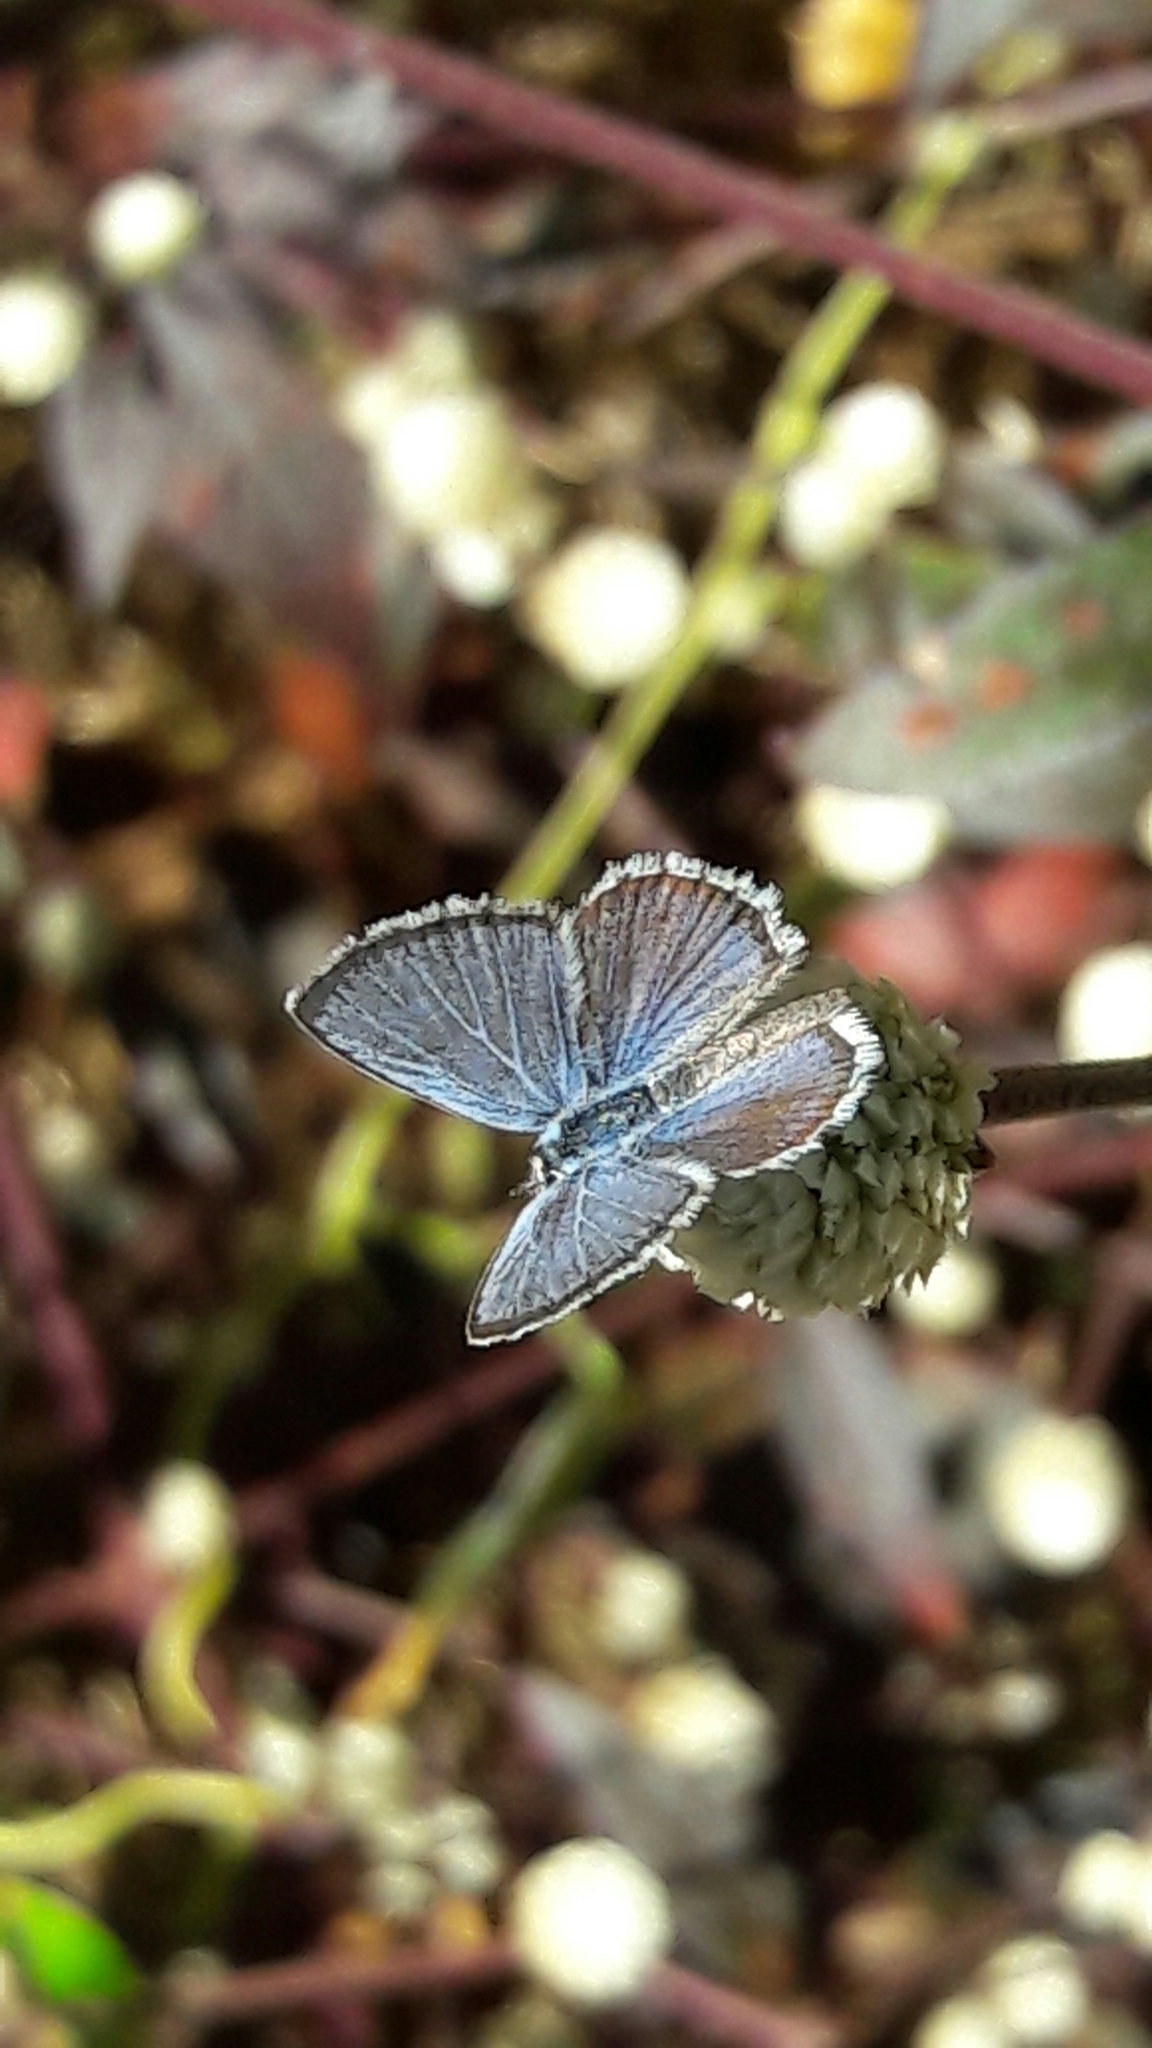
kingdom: Animalia
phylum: Arthropoda
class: Insecta
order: Lepidoptera
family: Lycaenidae
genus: Hemiargus
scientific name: Hemiargus hanno
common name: Common blue
